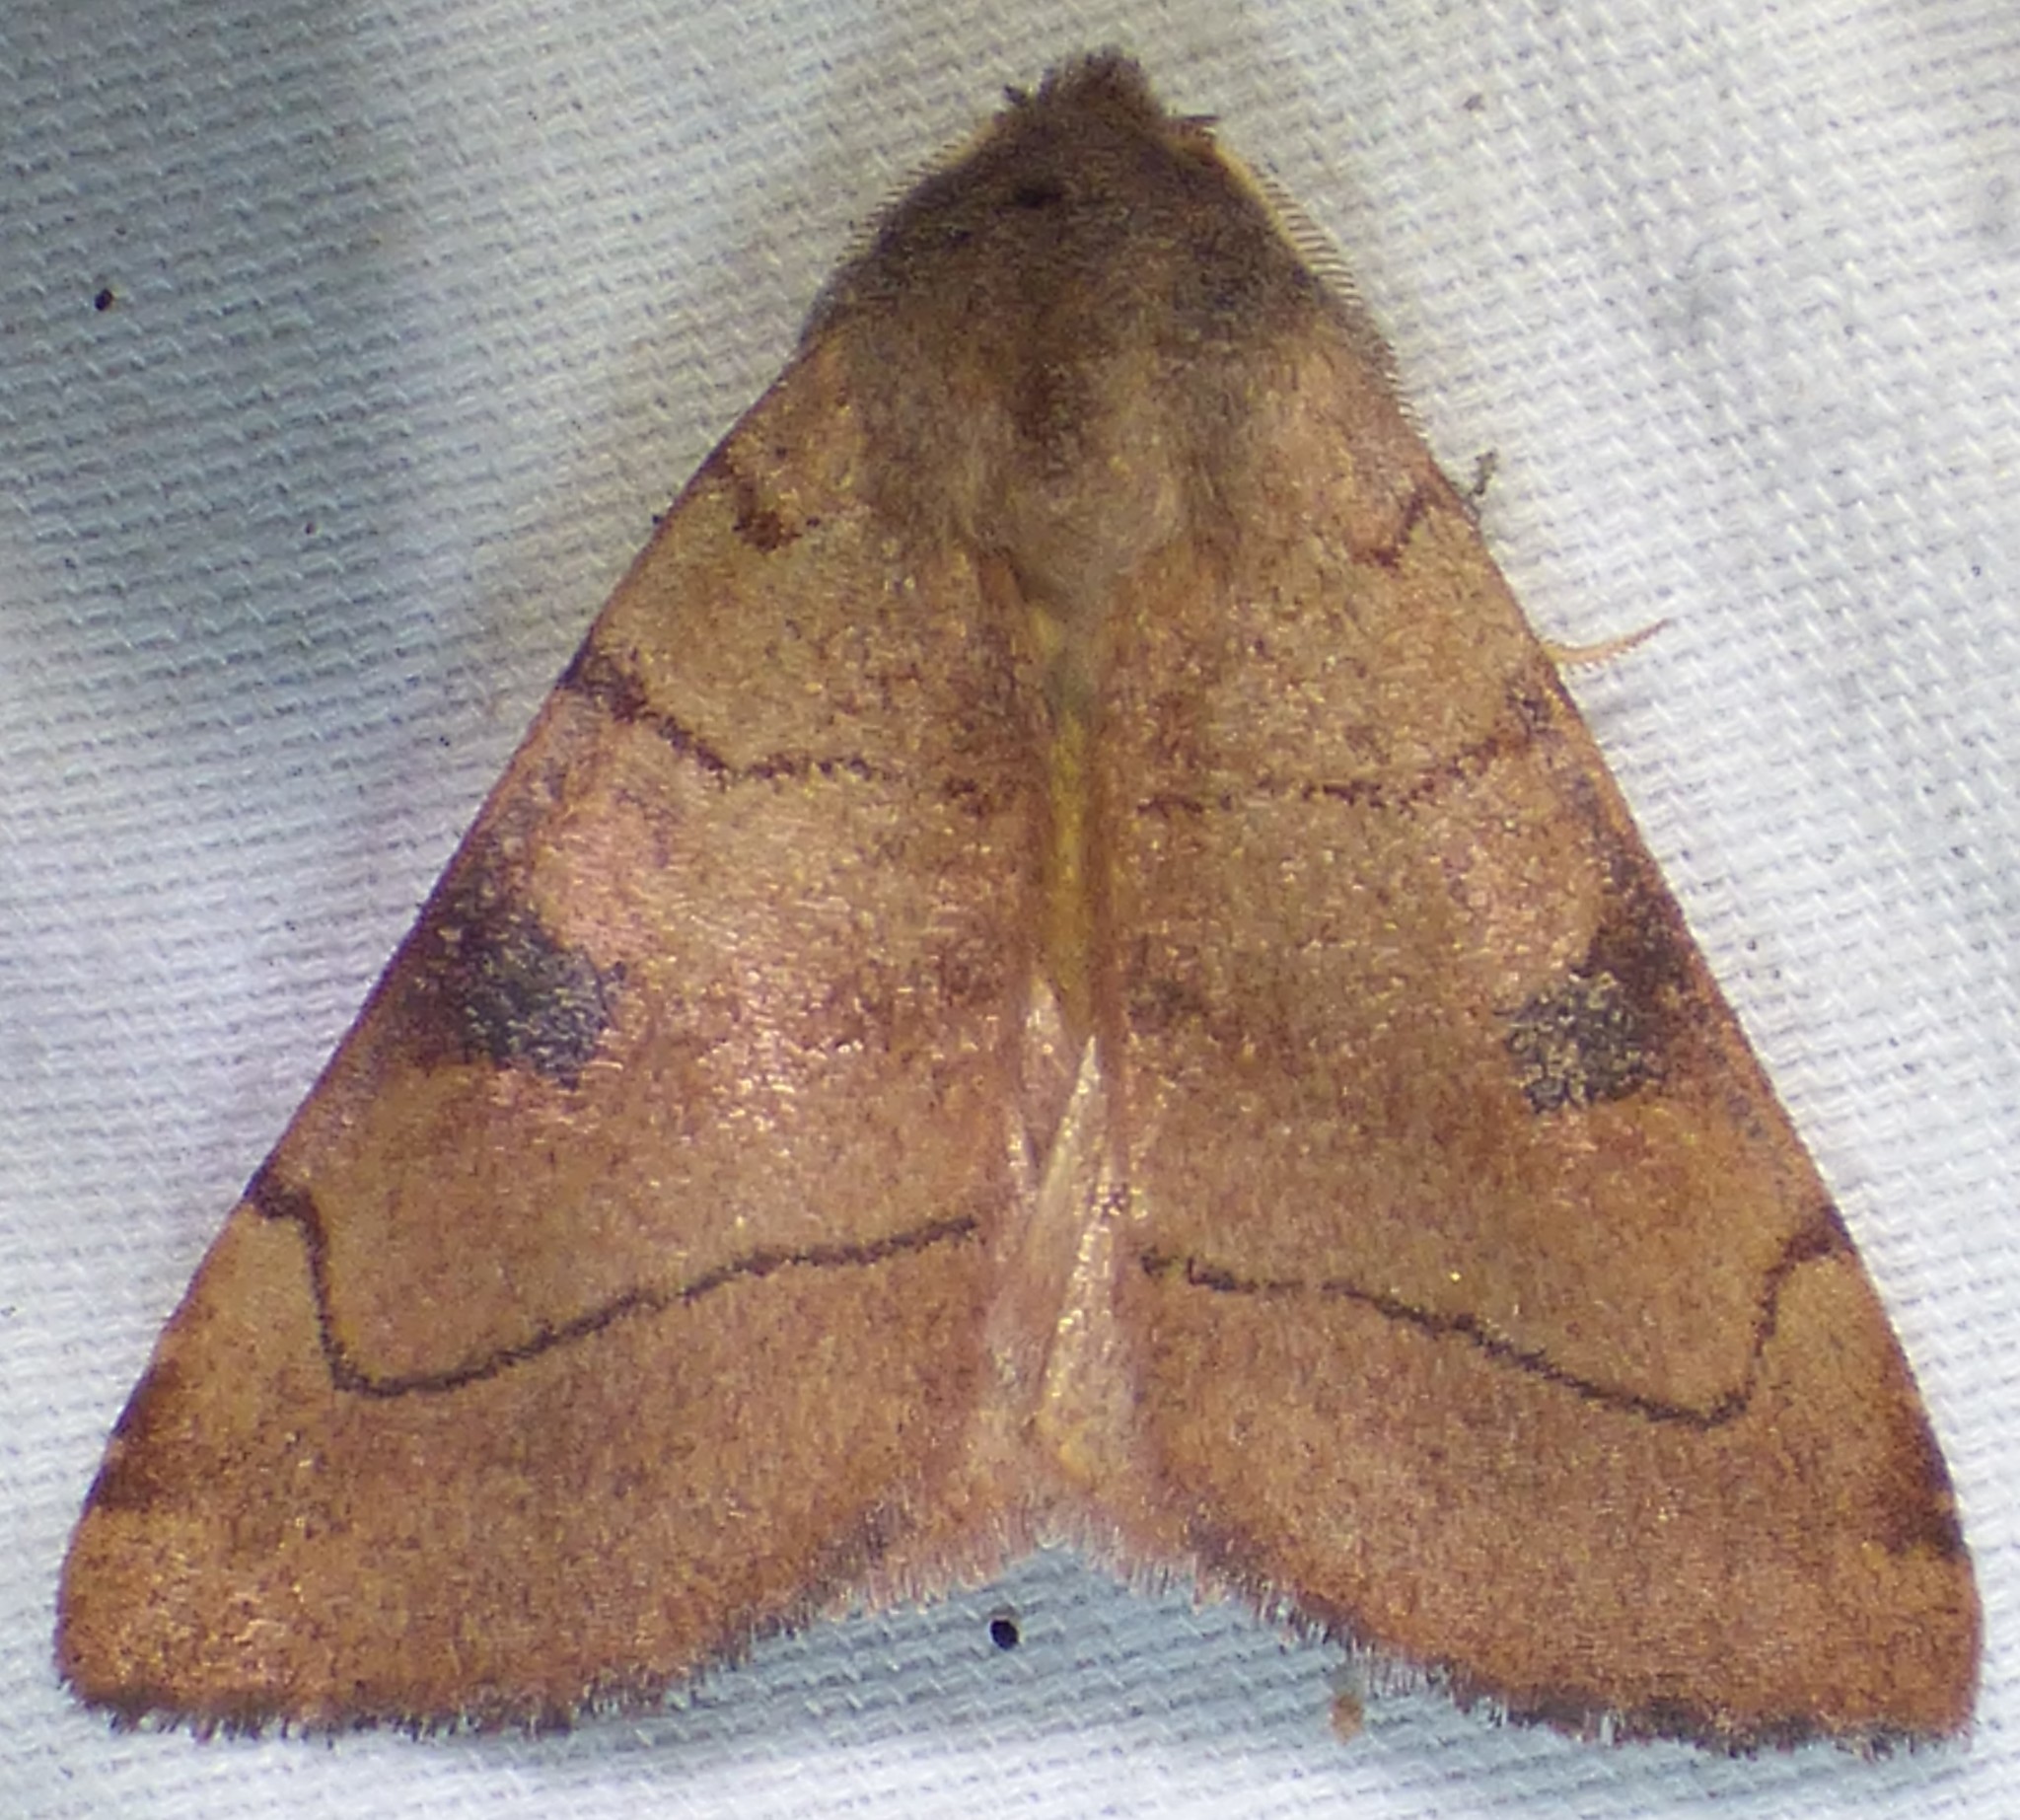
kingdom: Animalia
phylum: Arthropoda
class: Insecta
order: Lepidoptera
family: Noctuidae
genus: Choephora
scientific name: Choephora fungorum
